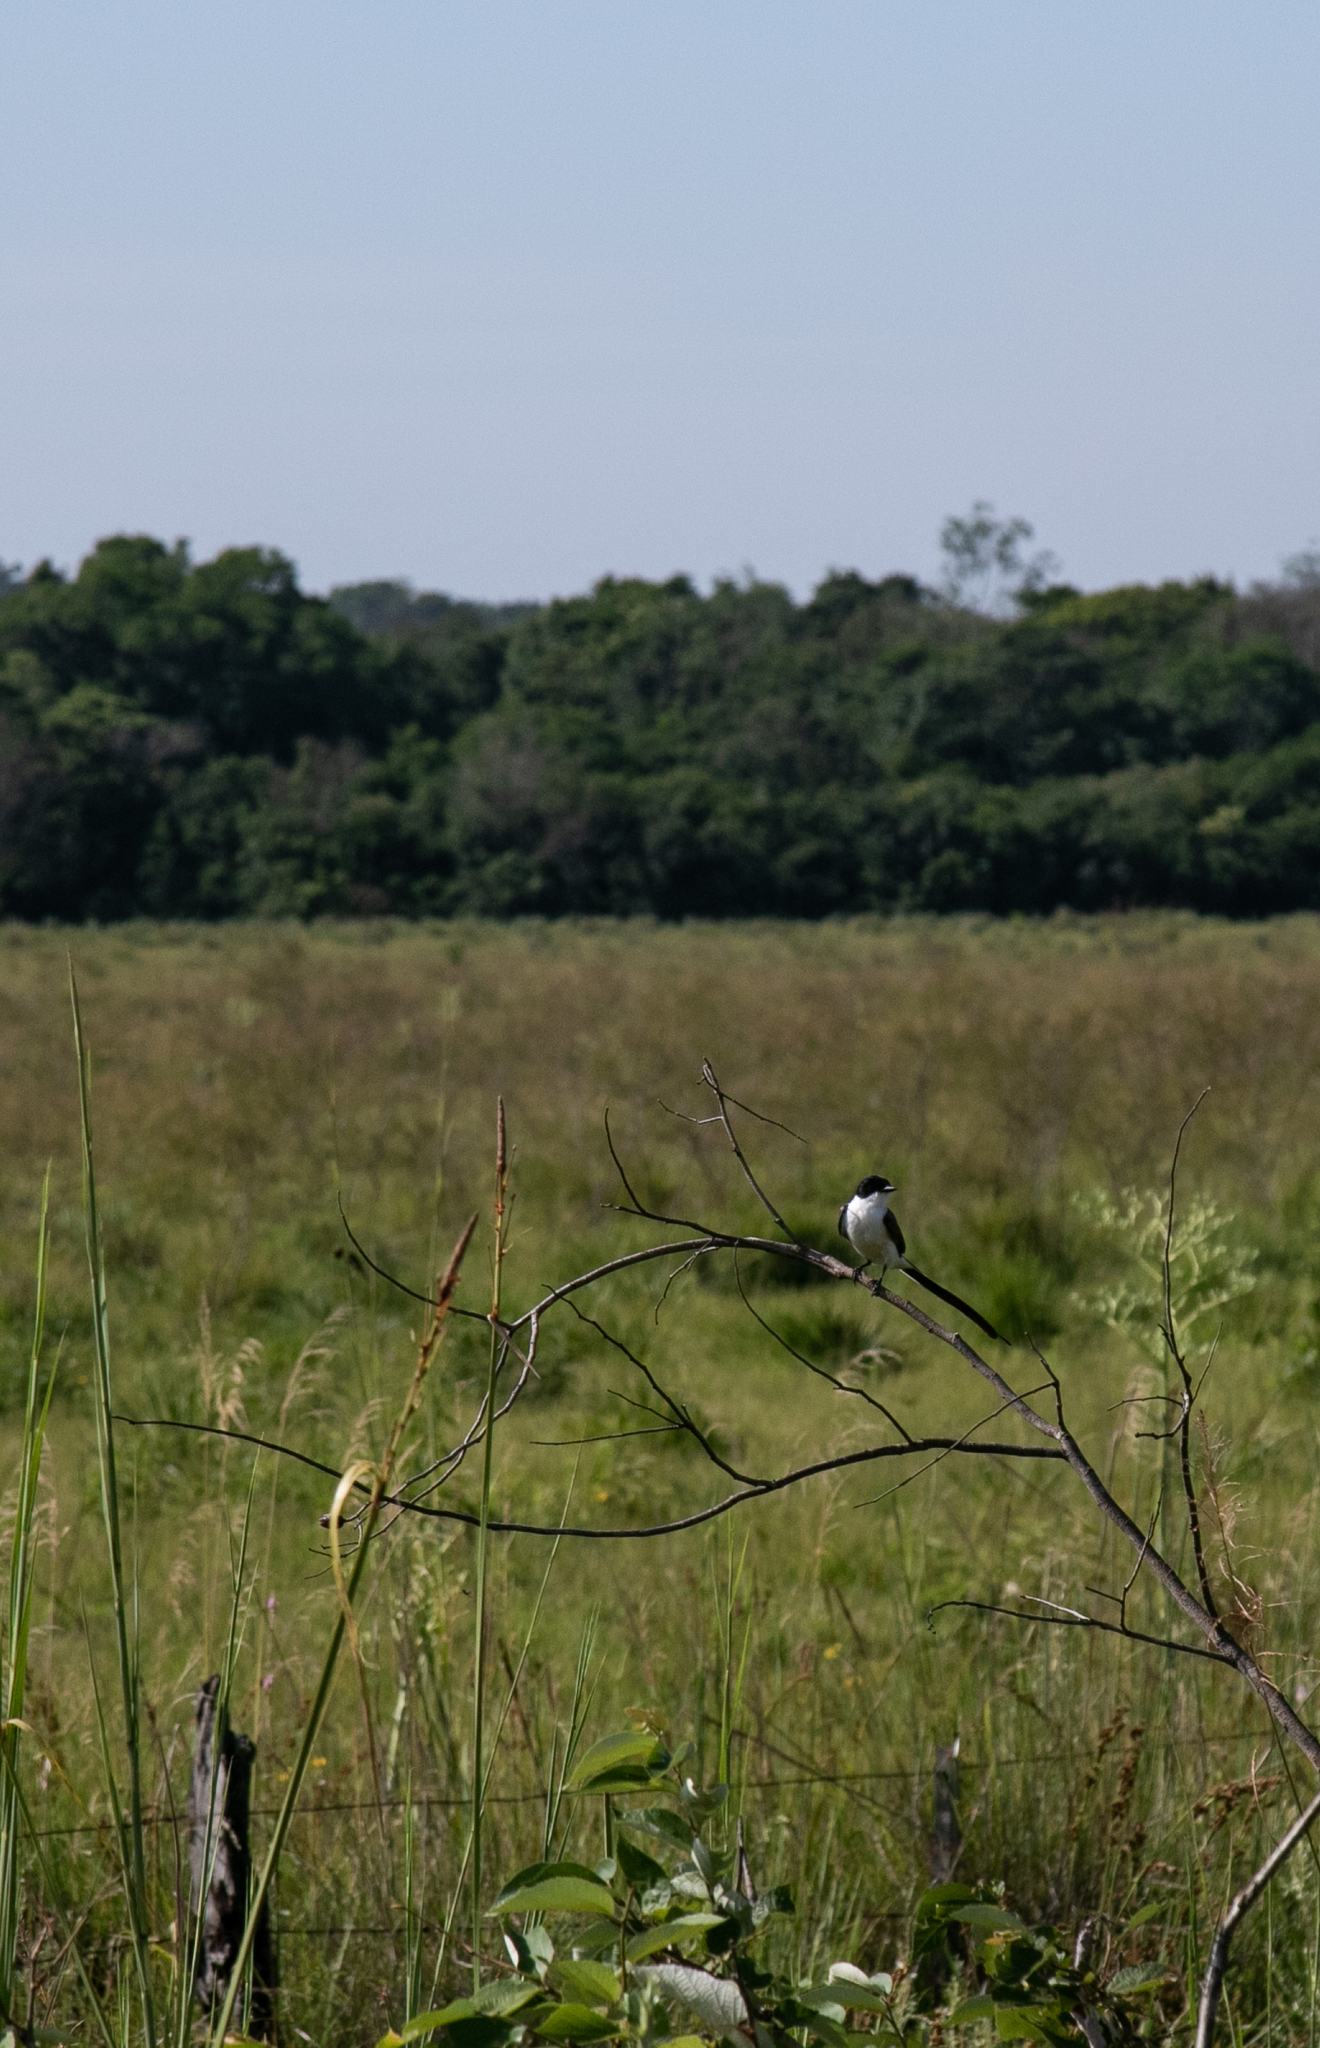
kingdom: Animalia
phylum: Chordata
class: Aves
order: Passeriformes
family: Tyrannidae
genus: Tyrannus
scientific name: Tyrannus savana
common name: Fork-tailed flycatcher
